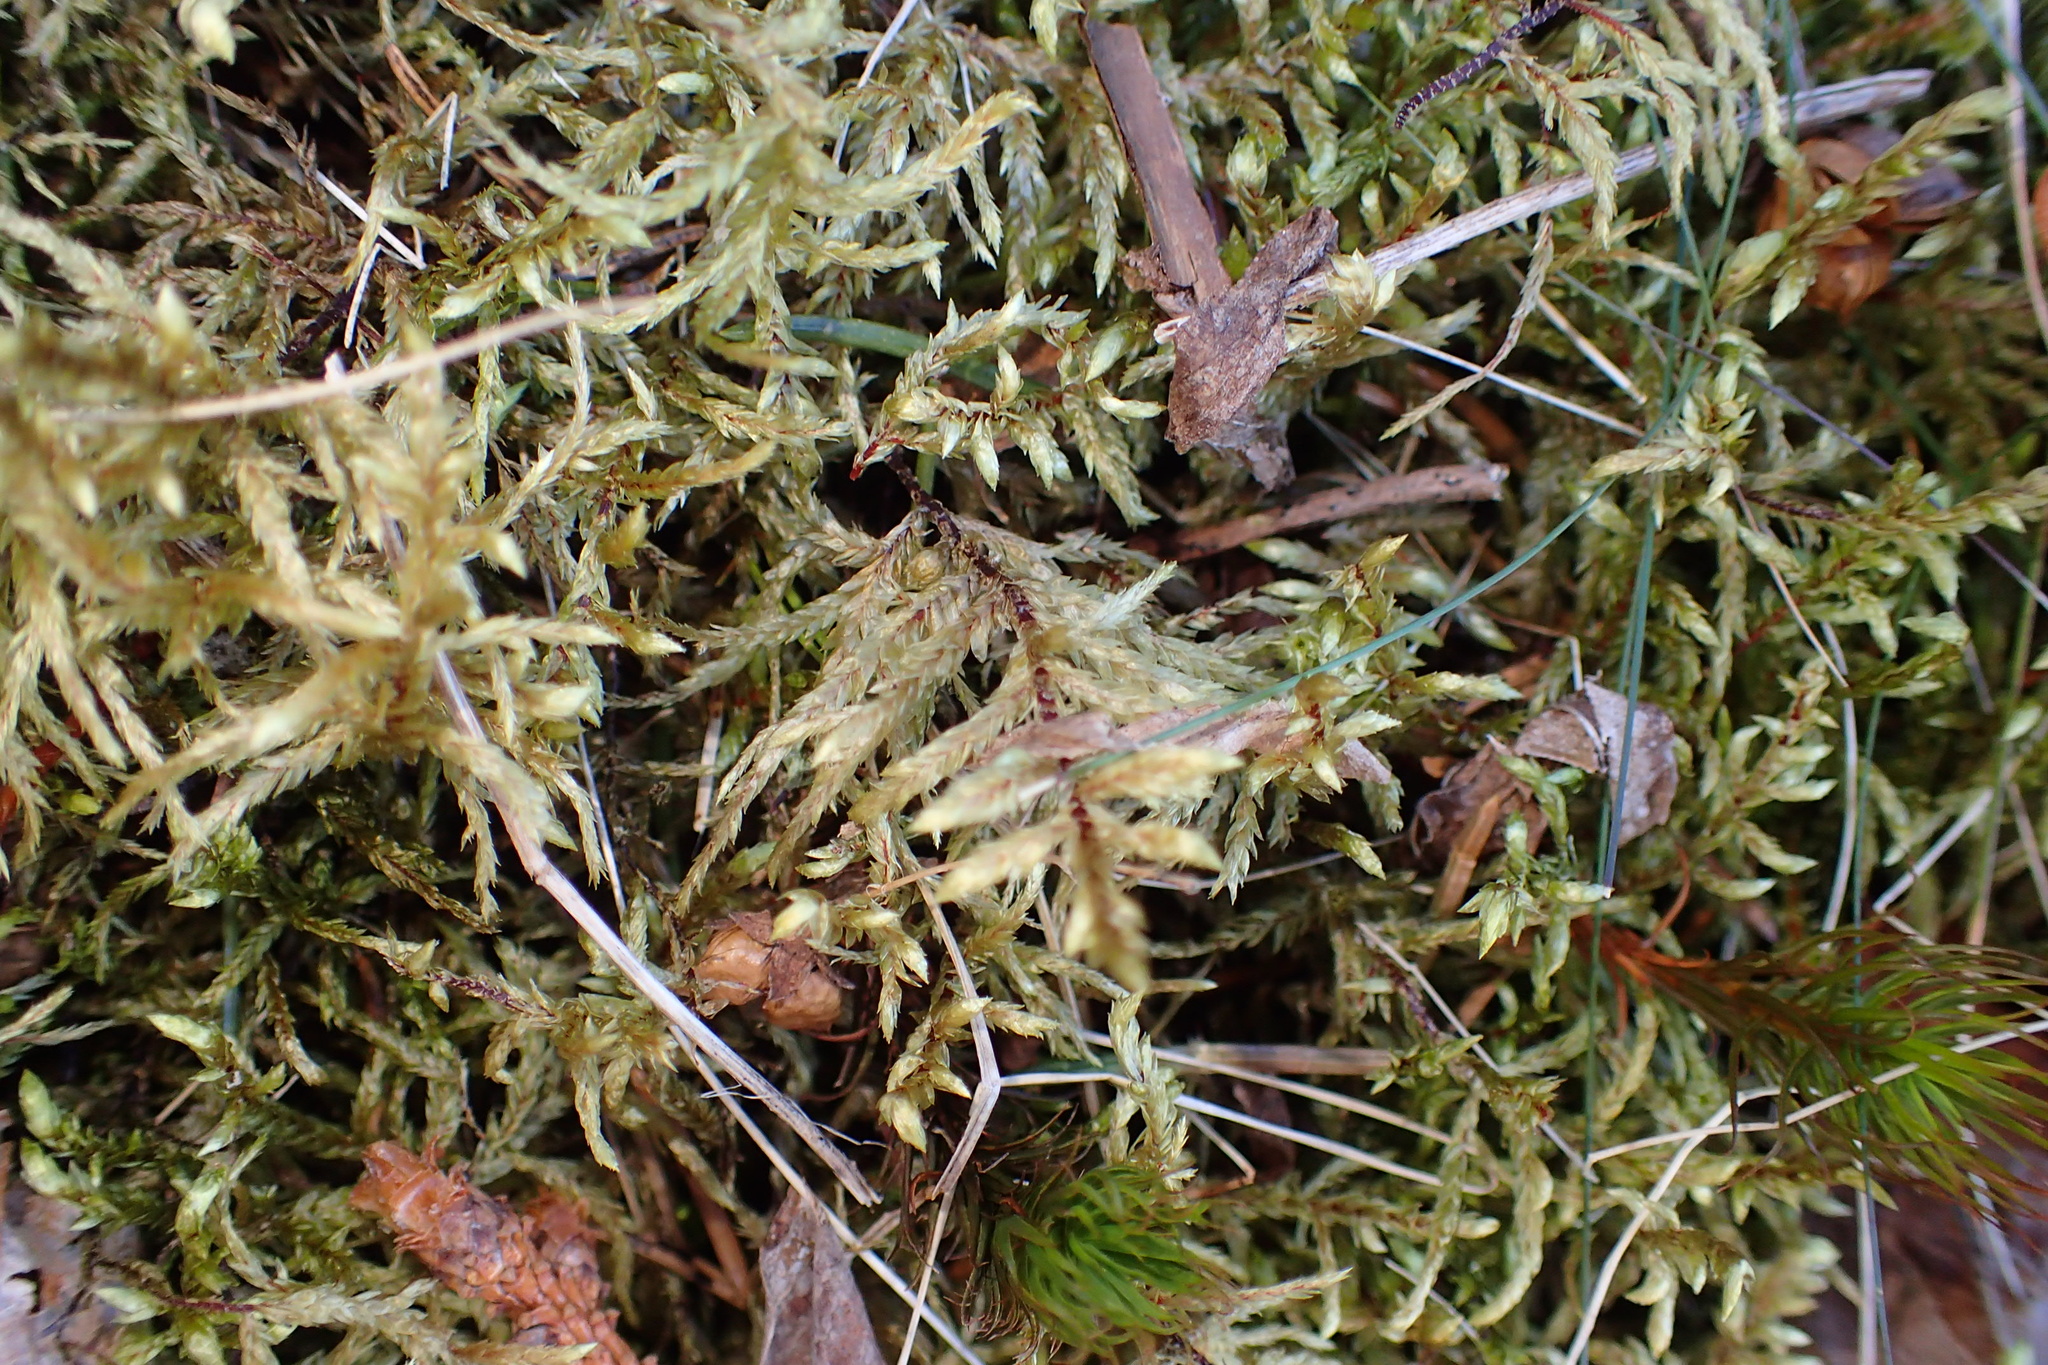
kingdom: Plantae
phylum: Bryophyta
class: Bryopsida
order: Hypnales
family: Hylocomiaceae
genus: Pleurozium
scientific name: Pleurozium schreberi
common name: Red-stemmed feather moss
